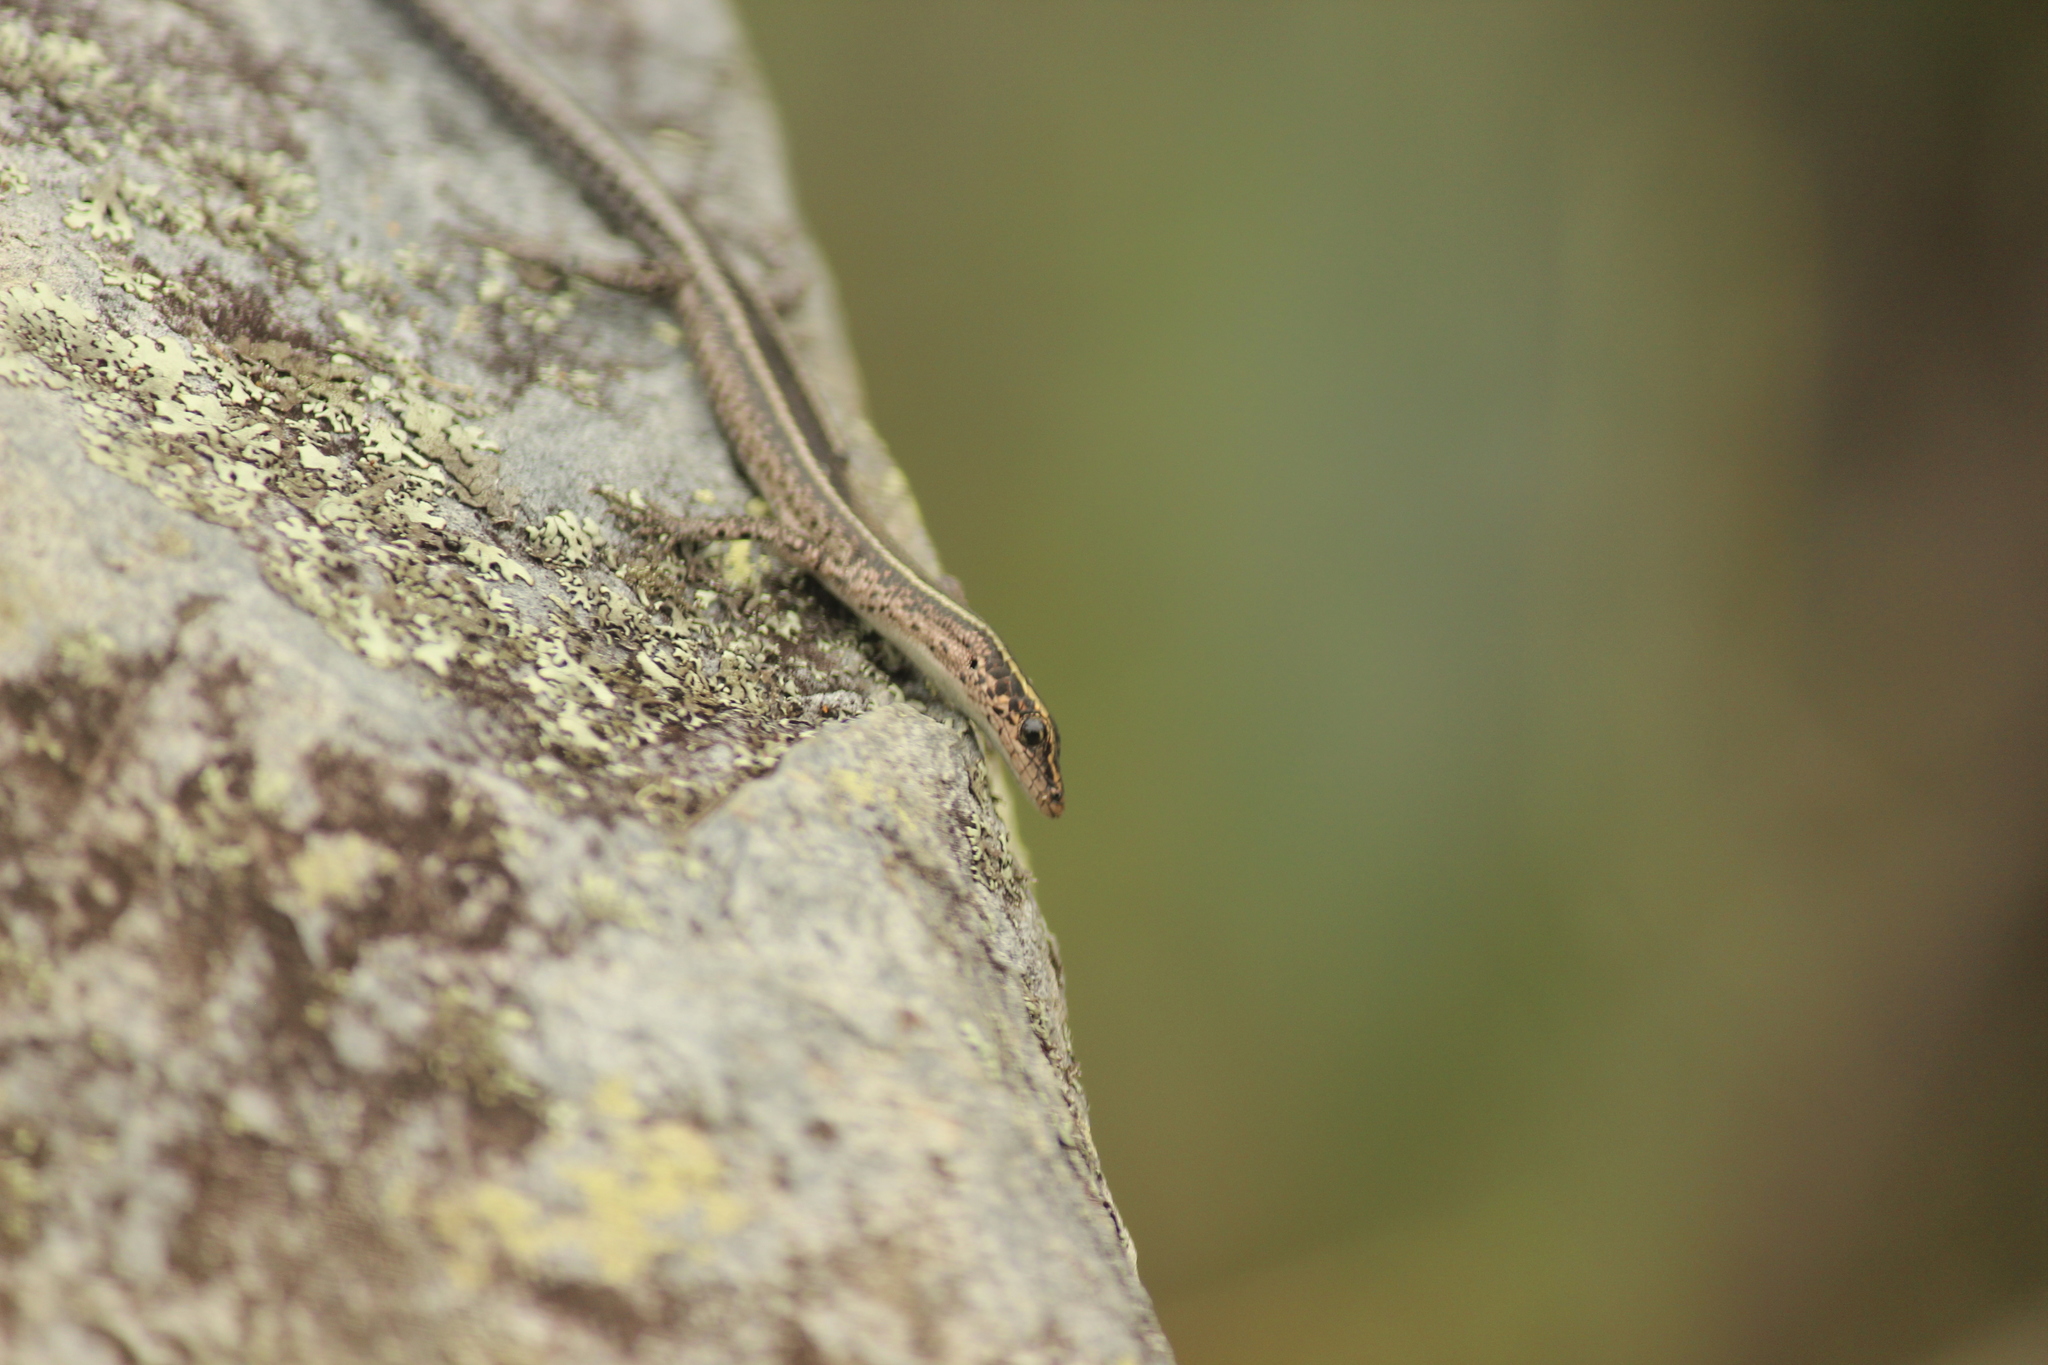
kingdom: Animalia
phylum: Chordata
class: Squamata
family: Scincidae
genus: Cryptoblepharus
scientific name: Cryptoblepharus pulcher
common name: Elegant snake-eyed skink
